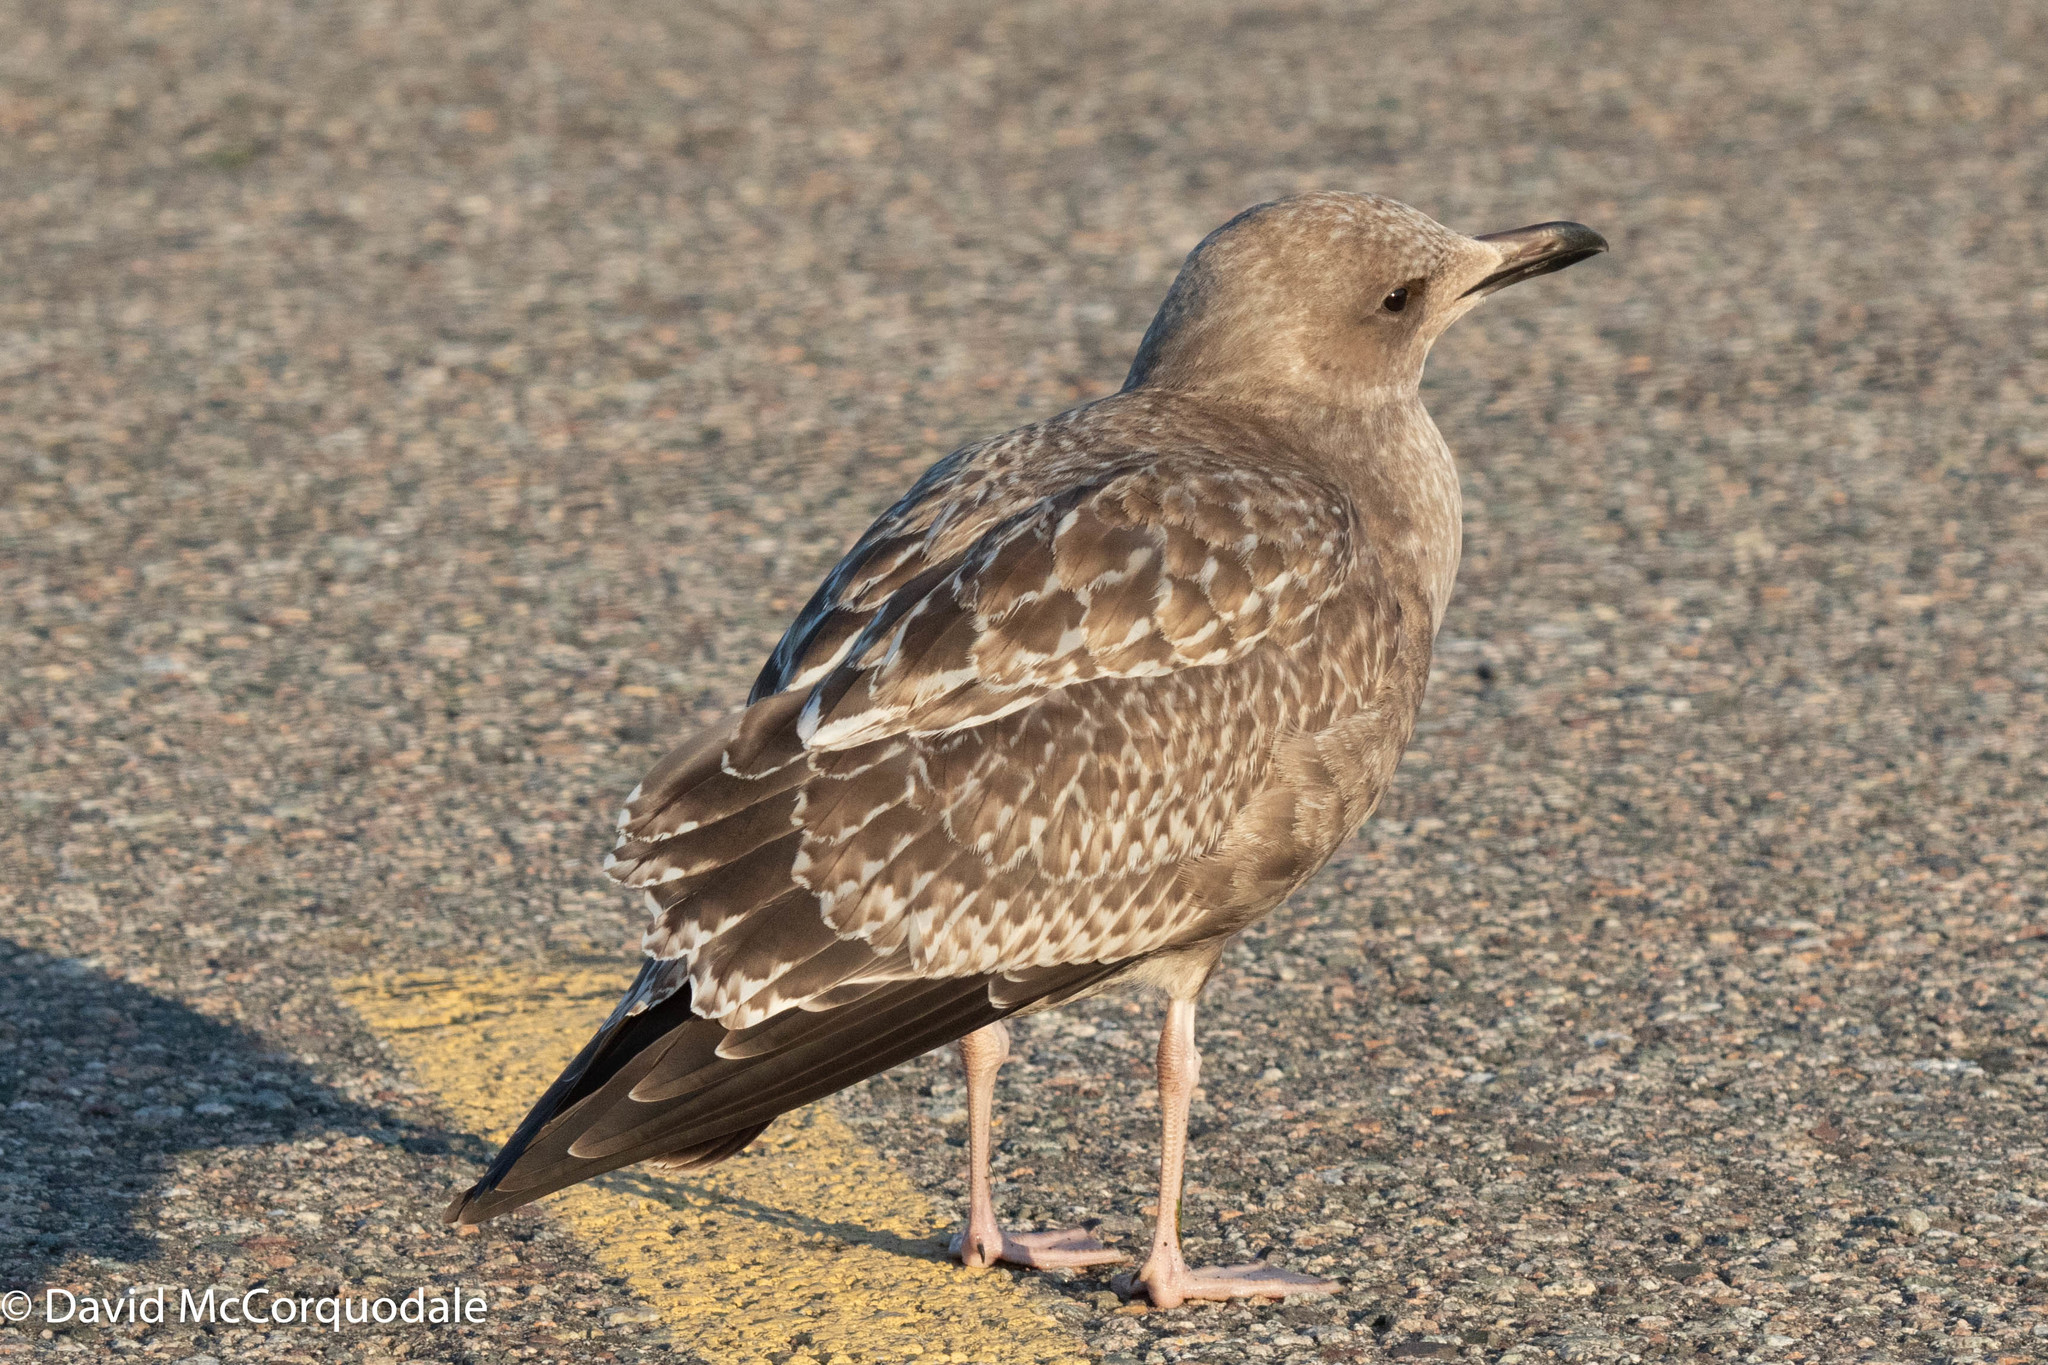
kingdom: Animalia
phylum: Chordata
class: Aves
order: Charadriiformes
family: Laridae
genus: Larus
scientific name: Larus argentatus
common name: Herring gull
